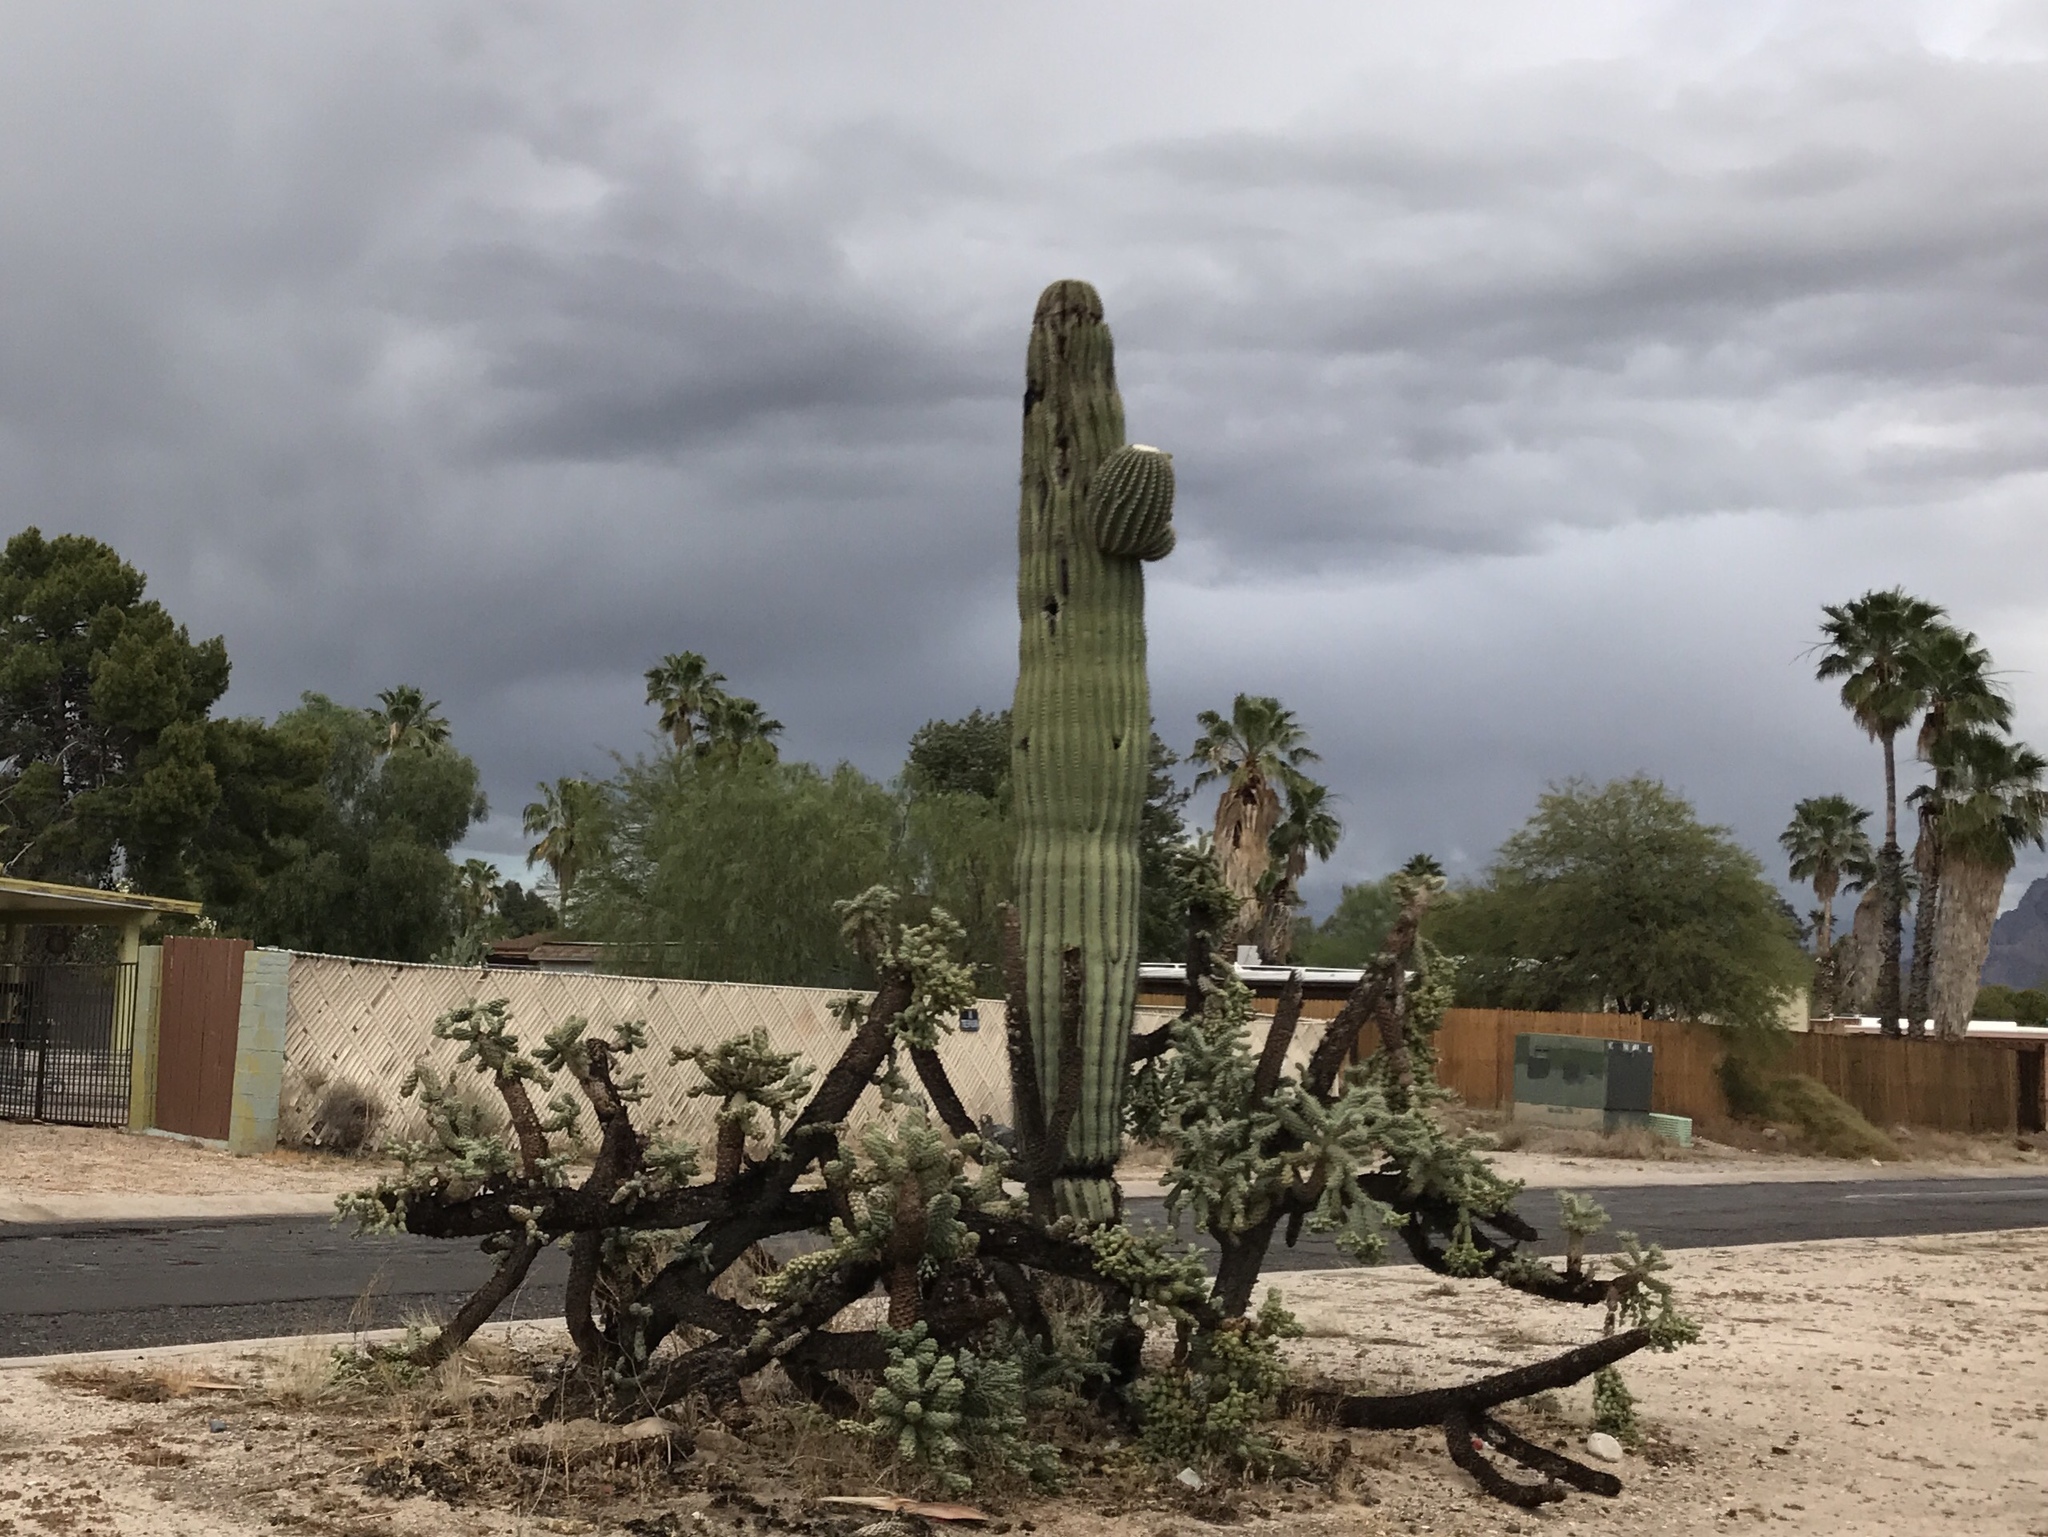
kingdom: Plantae
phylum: Tracheophyta
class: Magnoliopsida
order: Caryophyllales
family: Cactaceae
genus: Carnegiea
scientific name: Carnegiea gigantea
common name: Saguaro
